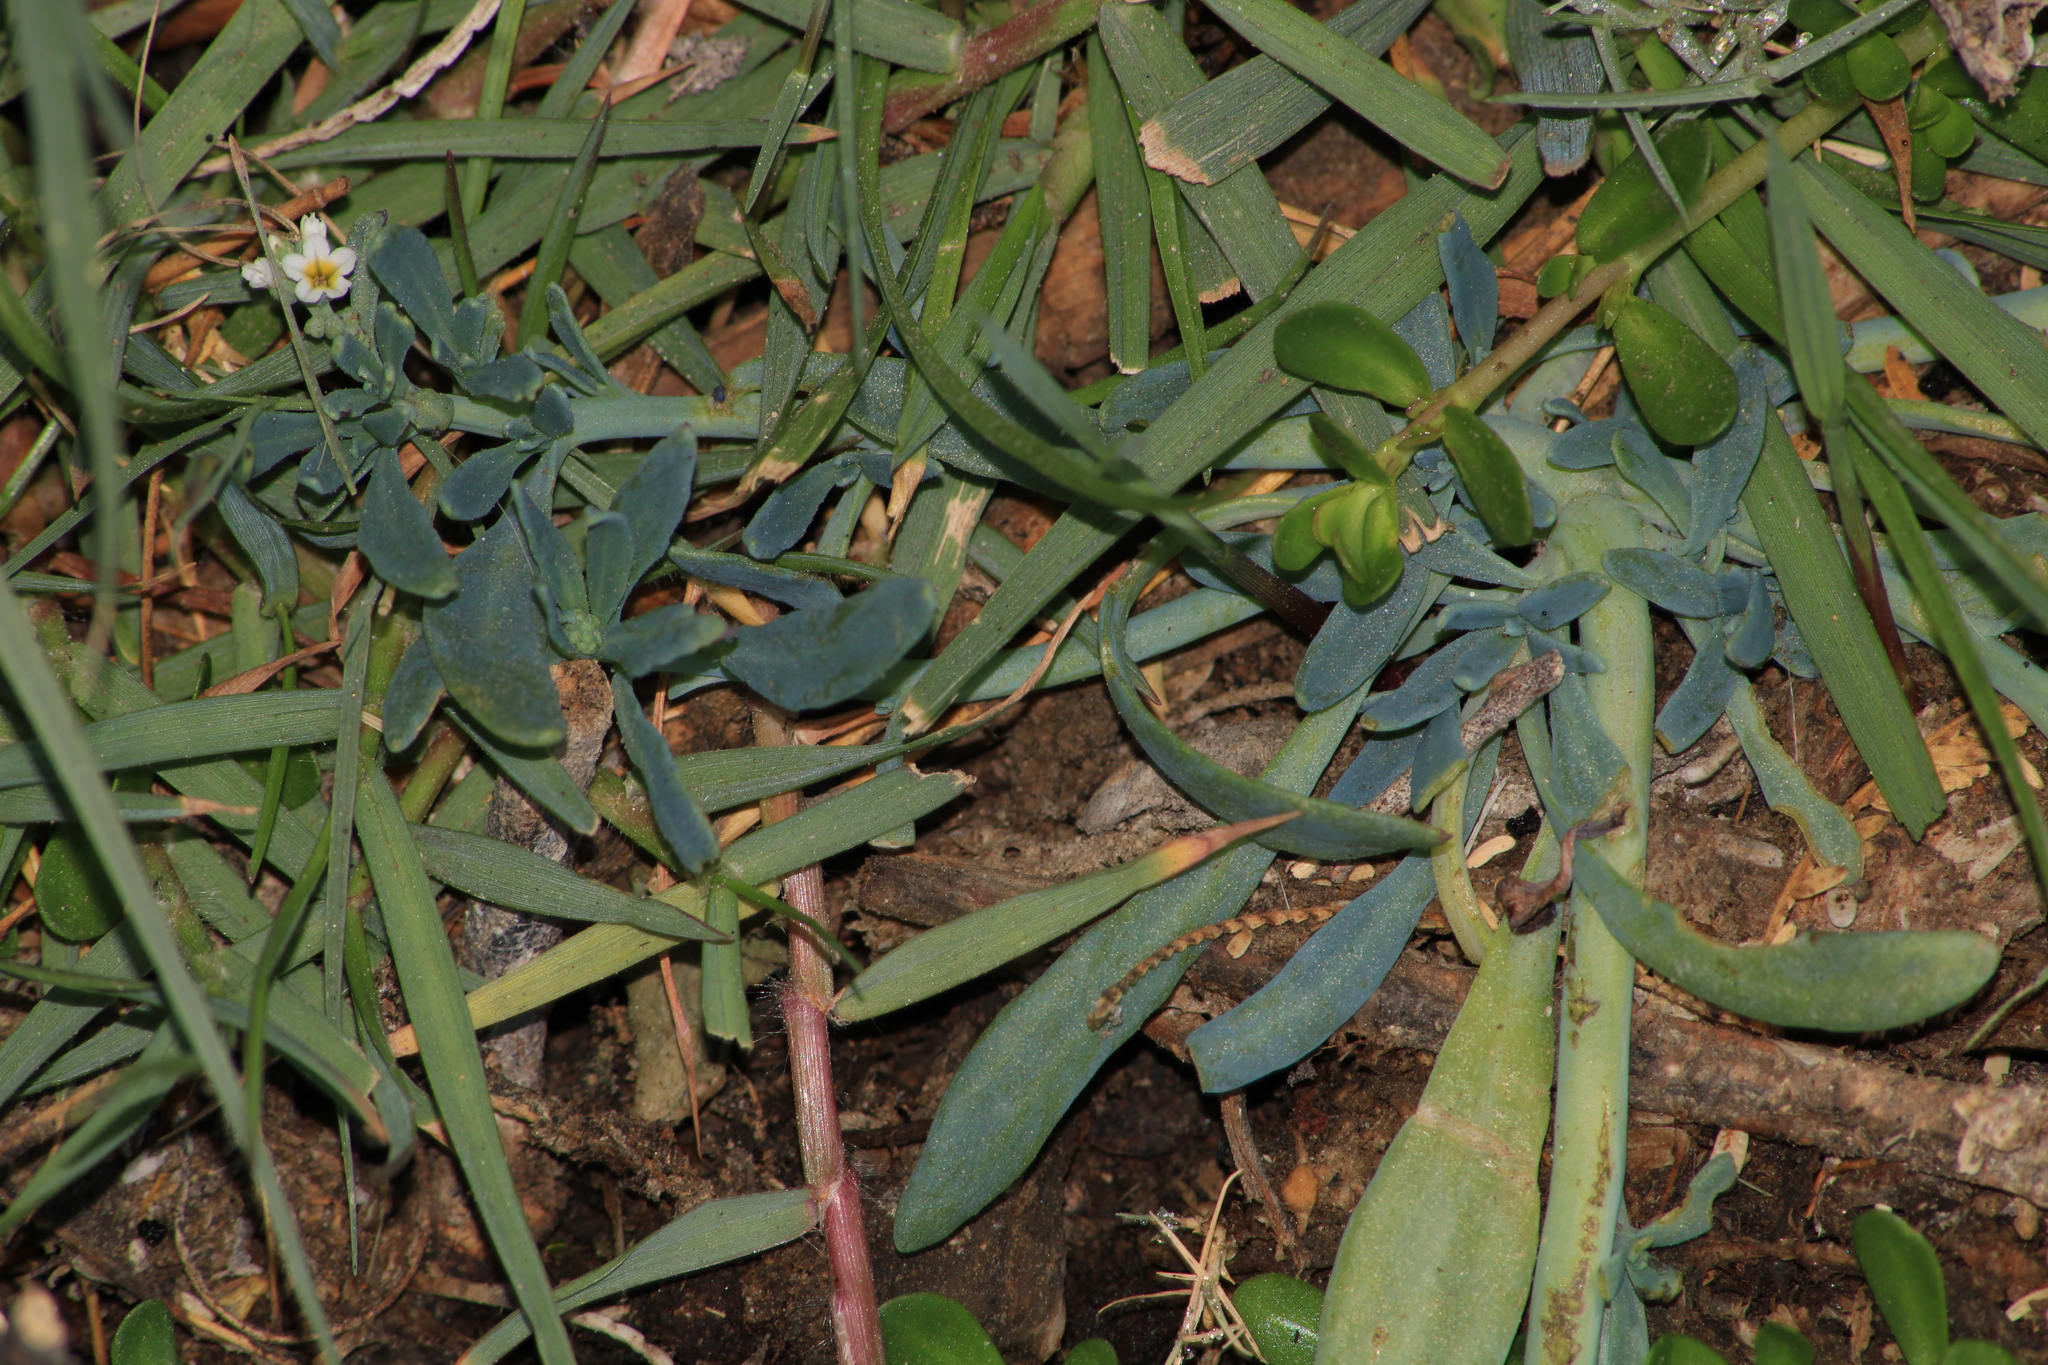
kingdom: Plantae
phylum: Tracheophyta
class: Magnoliopsida
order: Boraginales
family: Heliotropiaceae
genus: Heliotropium
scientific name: Heliotropium curassavicum
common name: Seaside heliotrope
